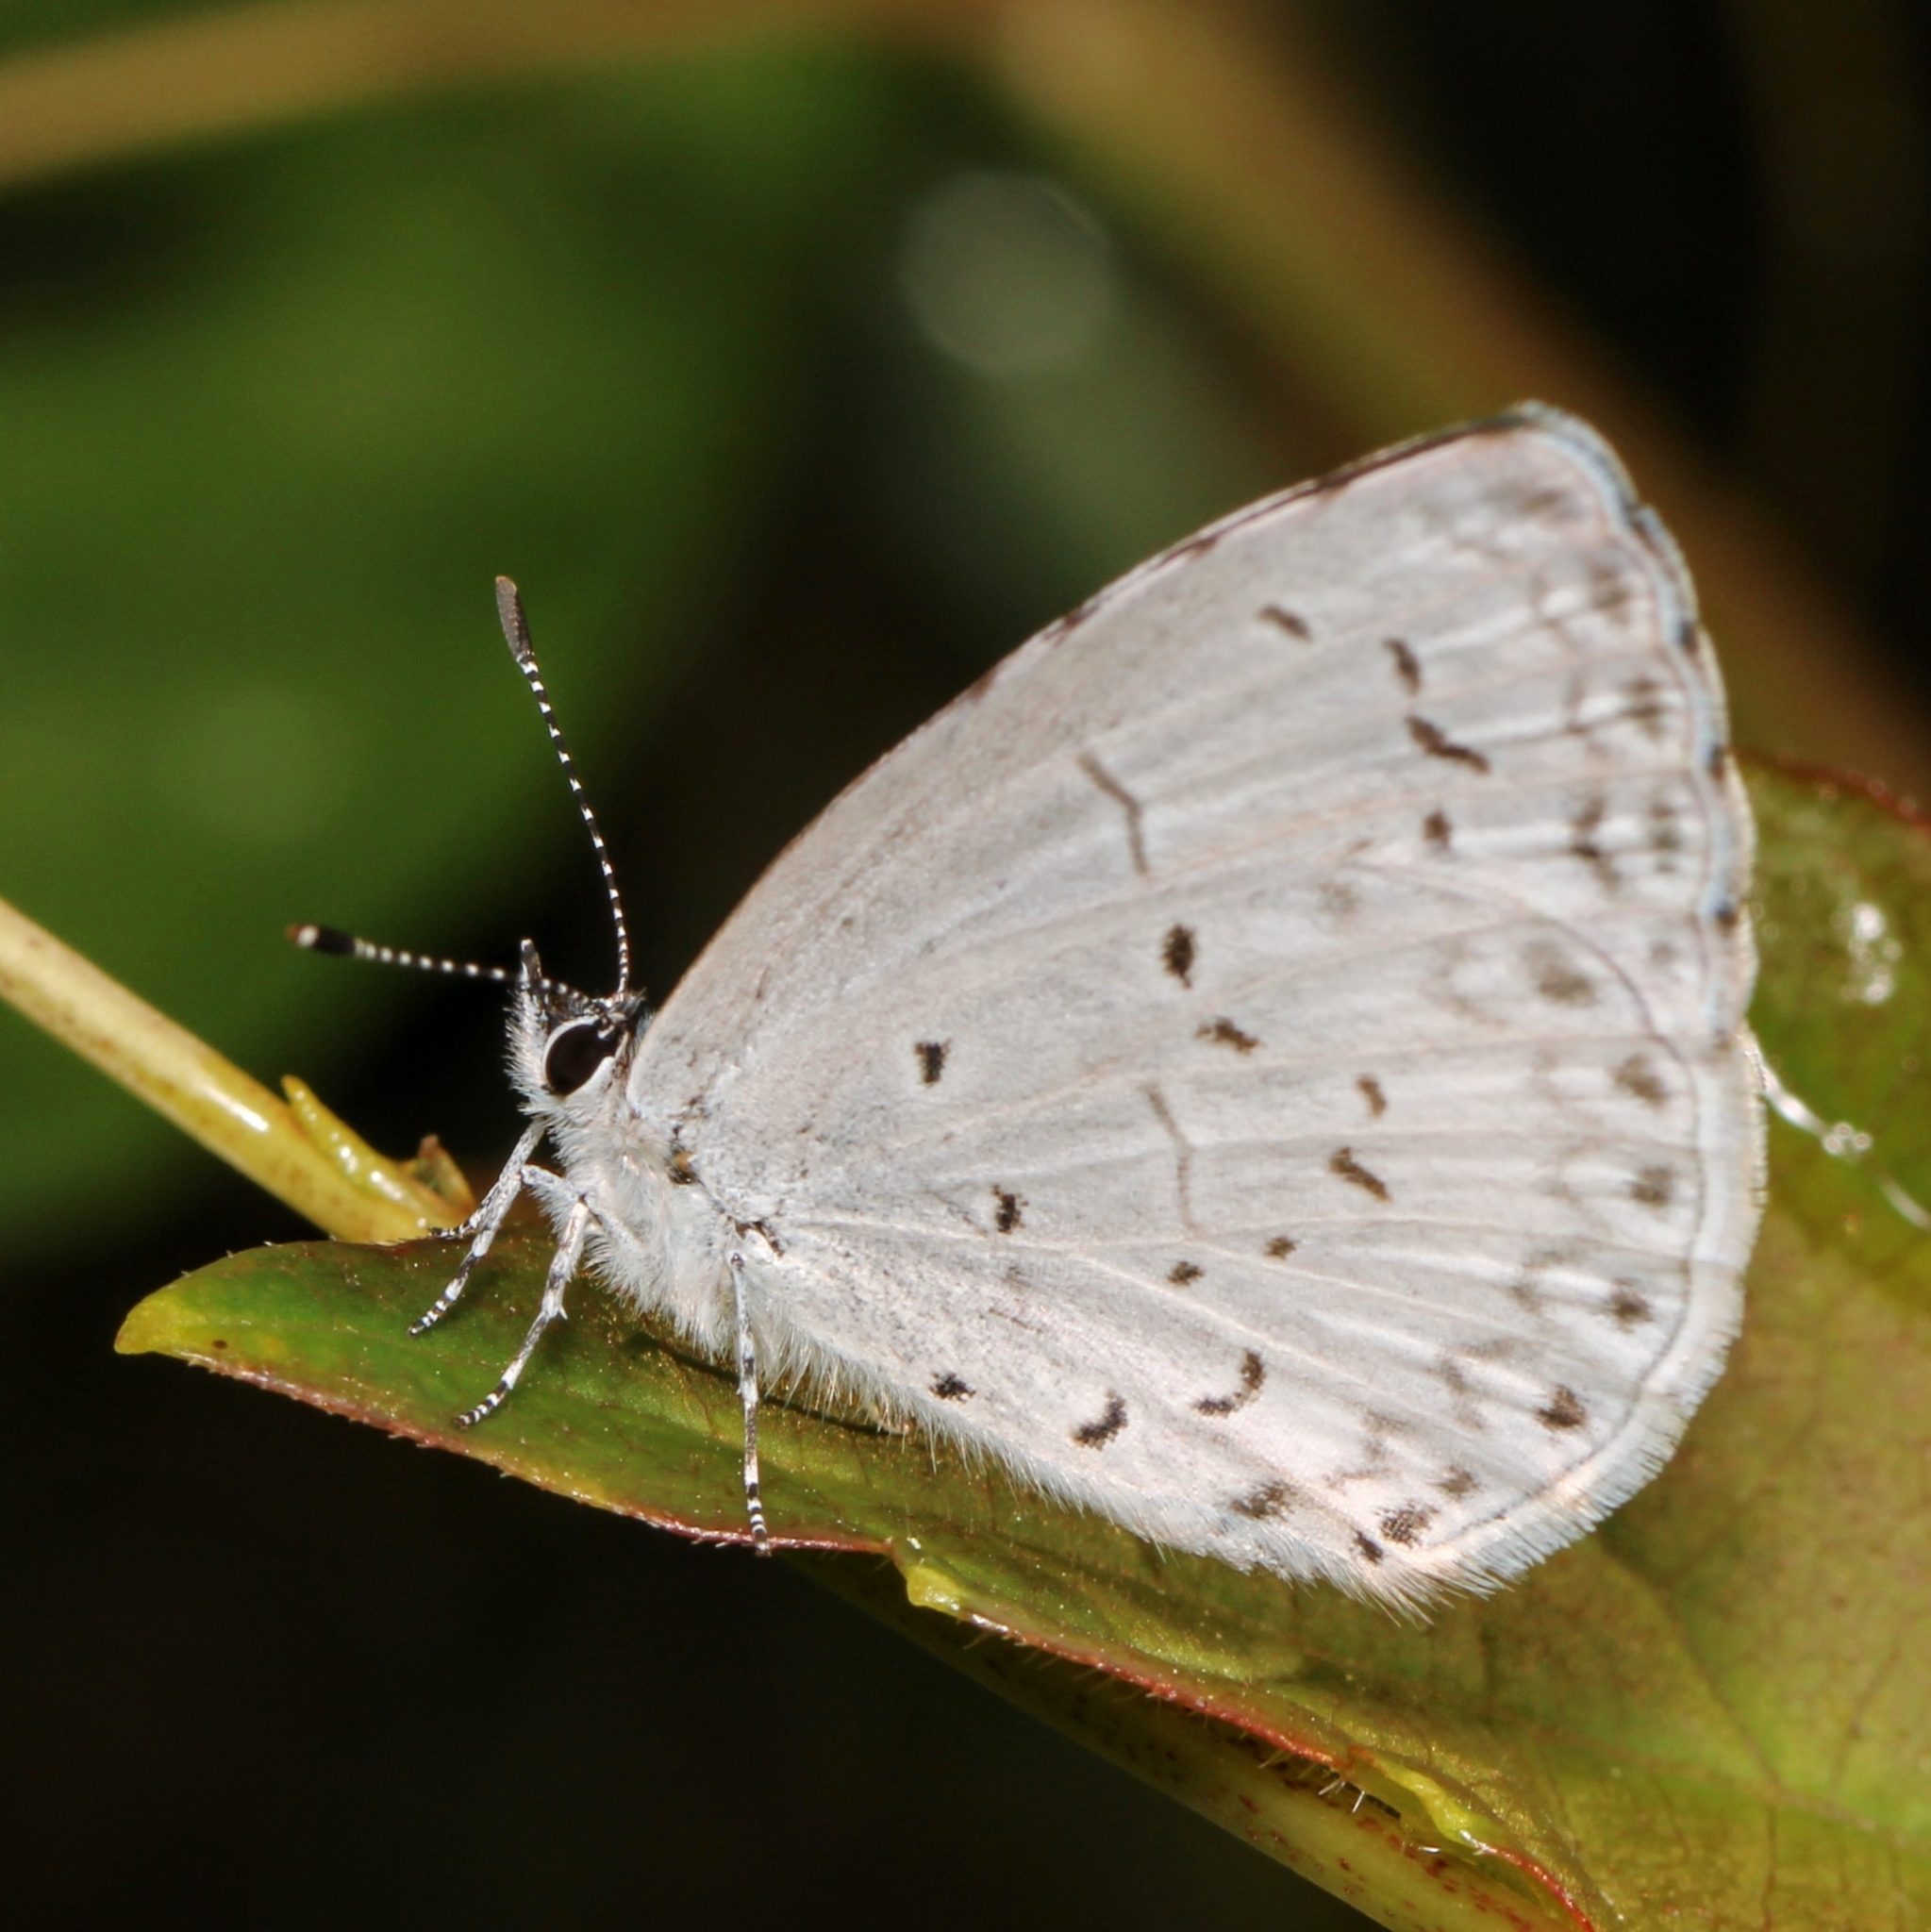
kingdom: Animalia
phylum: Arthropoda
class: Insecta
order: Lepidoptera
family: Lycaenidae
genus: Cyaniris
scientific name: Cyaniris neglecta
